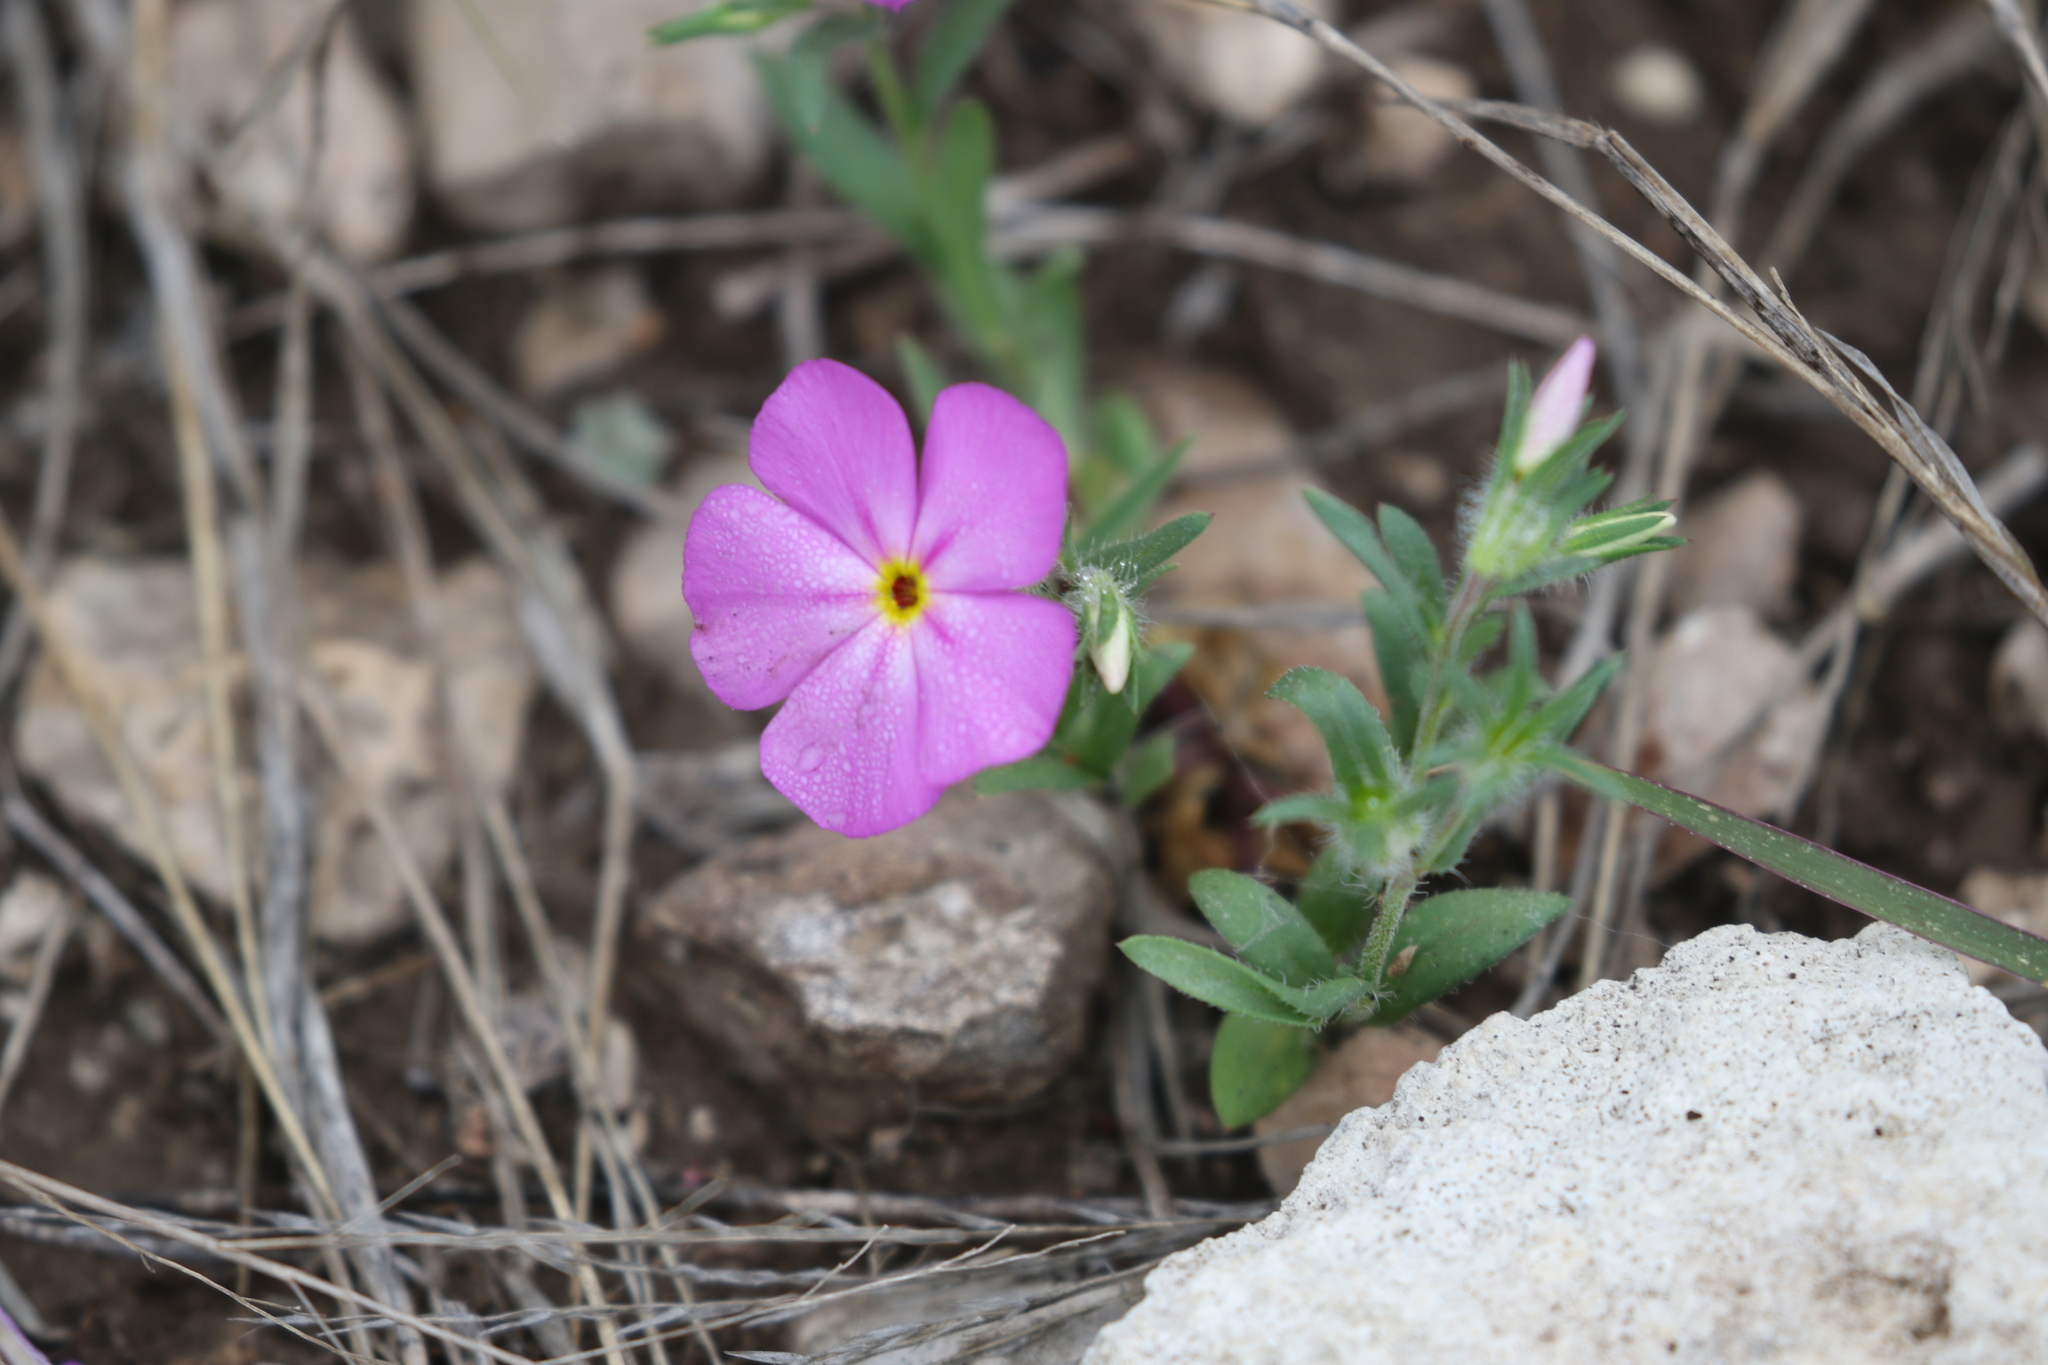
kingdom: Plantae
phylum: Tracheophyta
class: Magnoliopsida
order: Ericales
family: Polemoniaceae
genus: Phlox
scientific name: Phlox roemeriana
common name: Roemer's phlox
